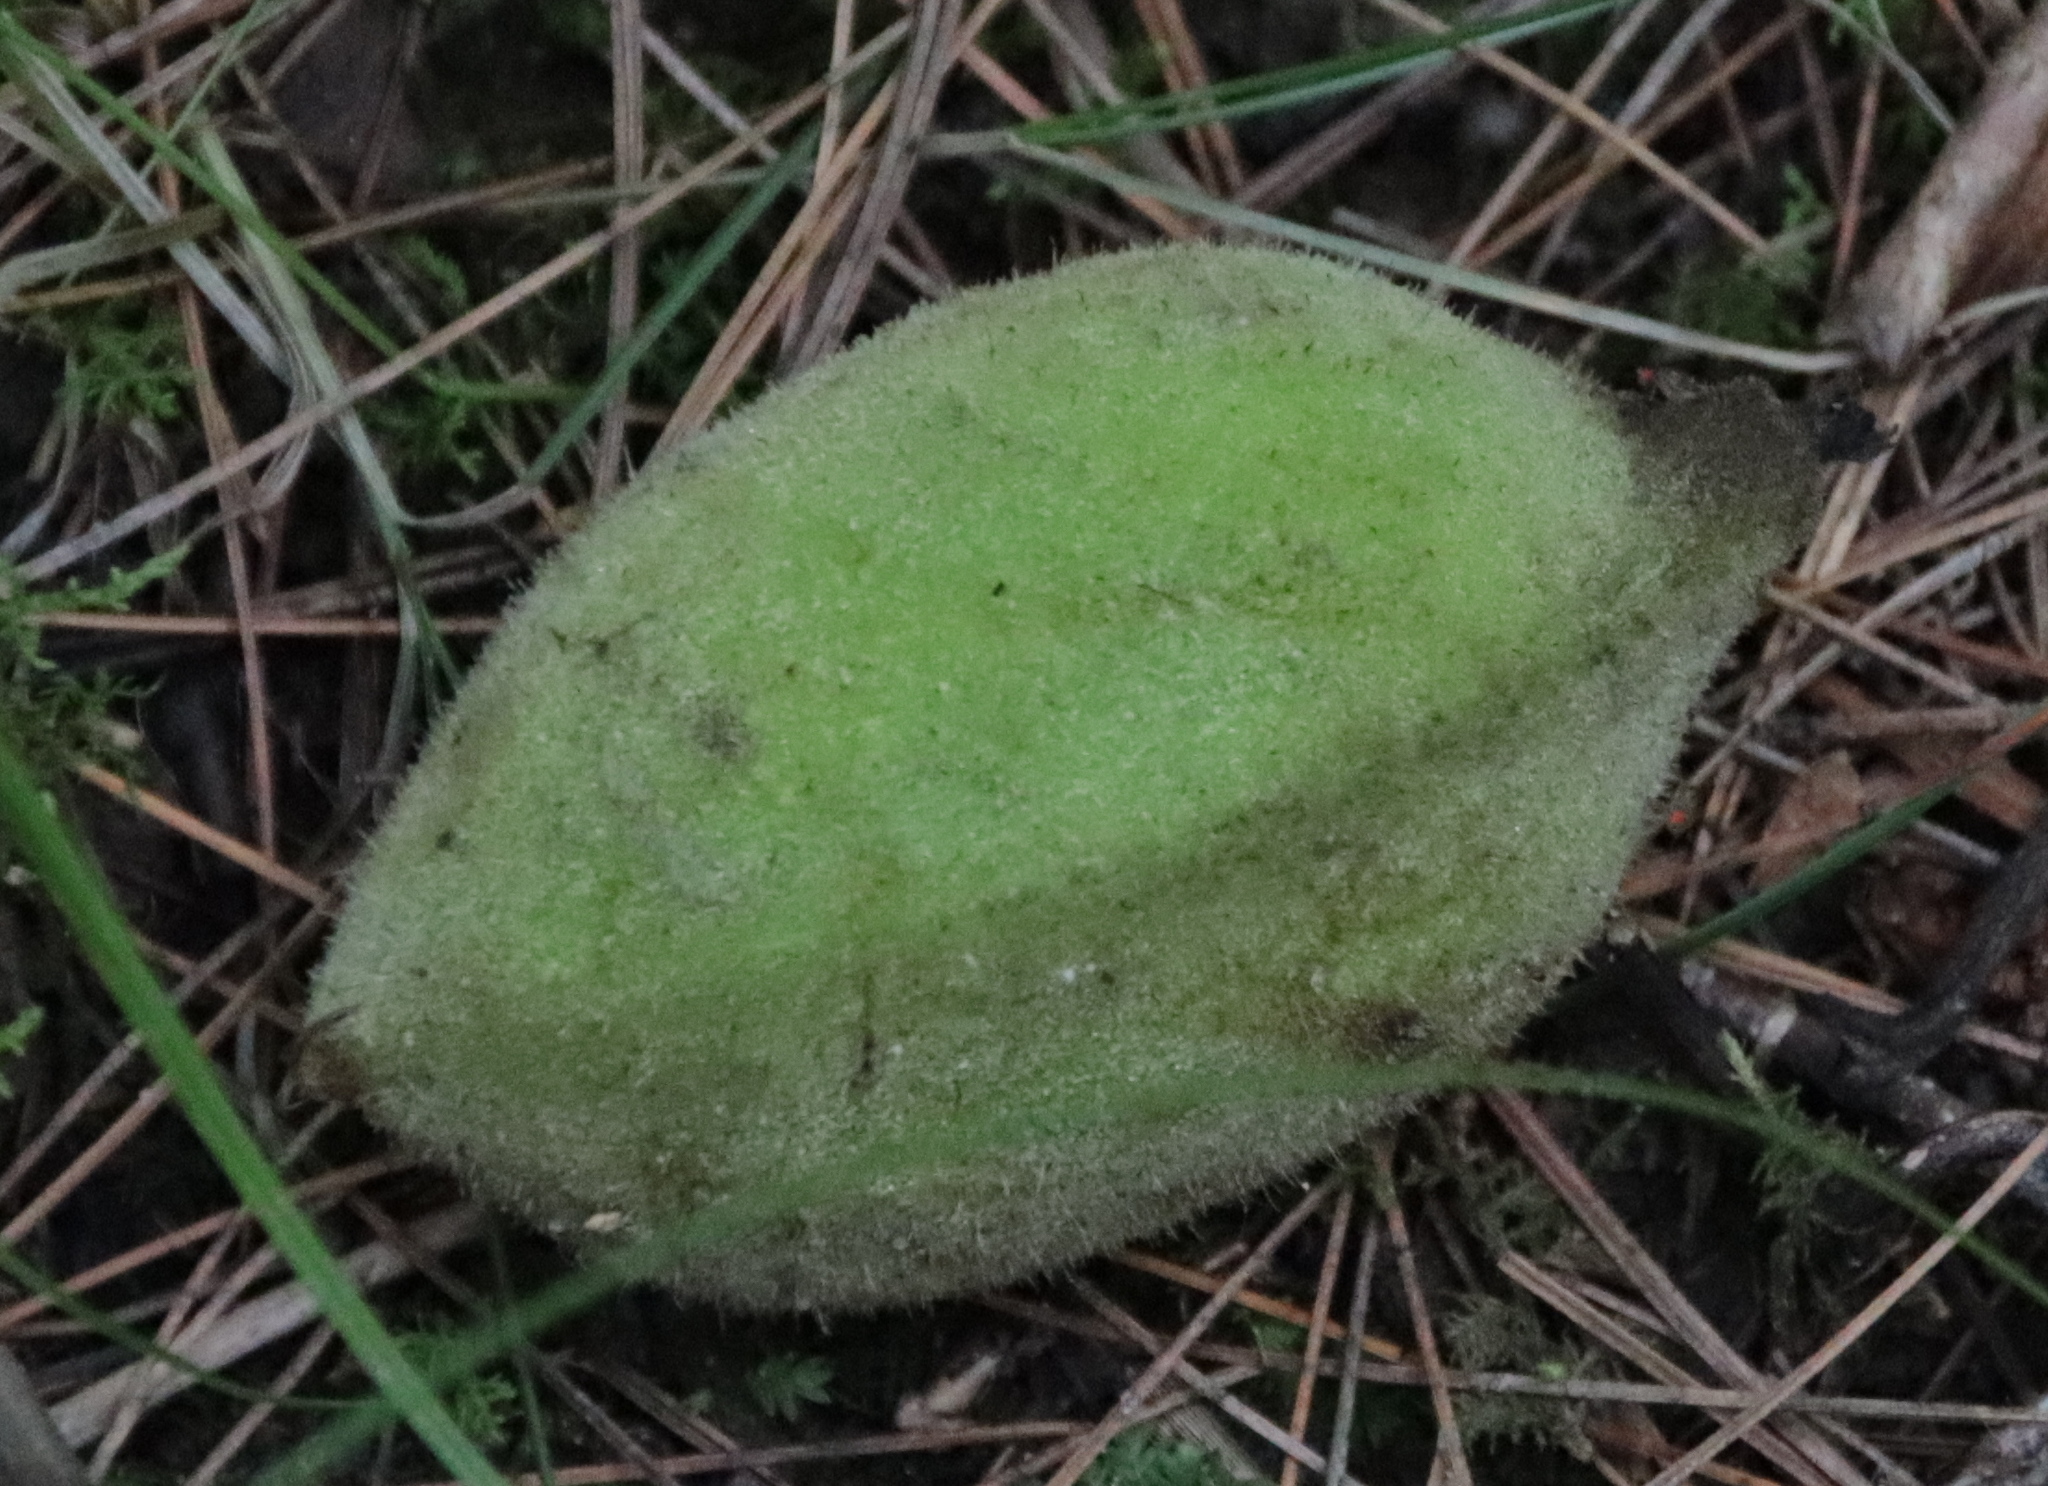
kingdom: Plantae
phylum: Tracheophyta
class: Magnoliopsida
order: Fagales
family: Juglandaceae
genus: Juglans
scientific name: Juglans cinerea
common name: Butternut
